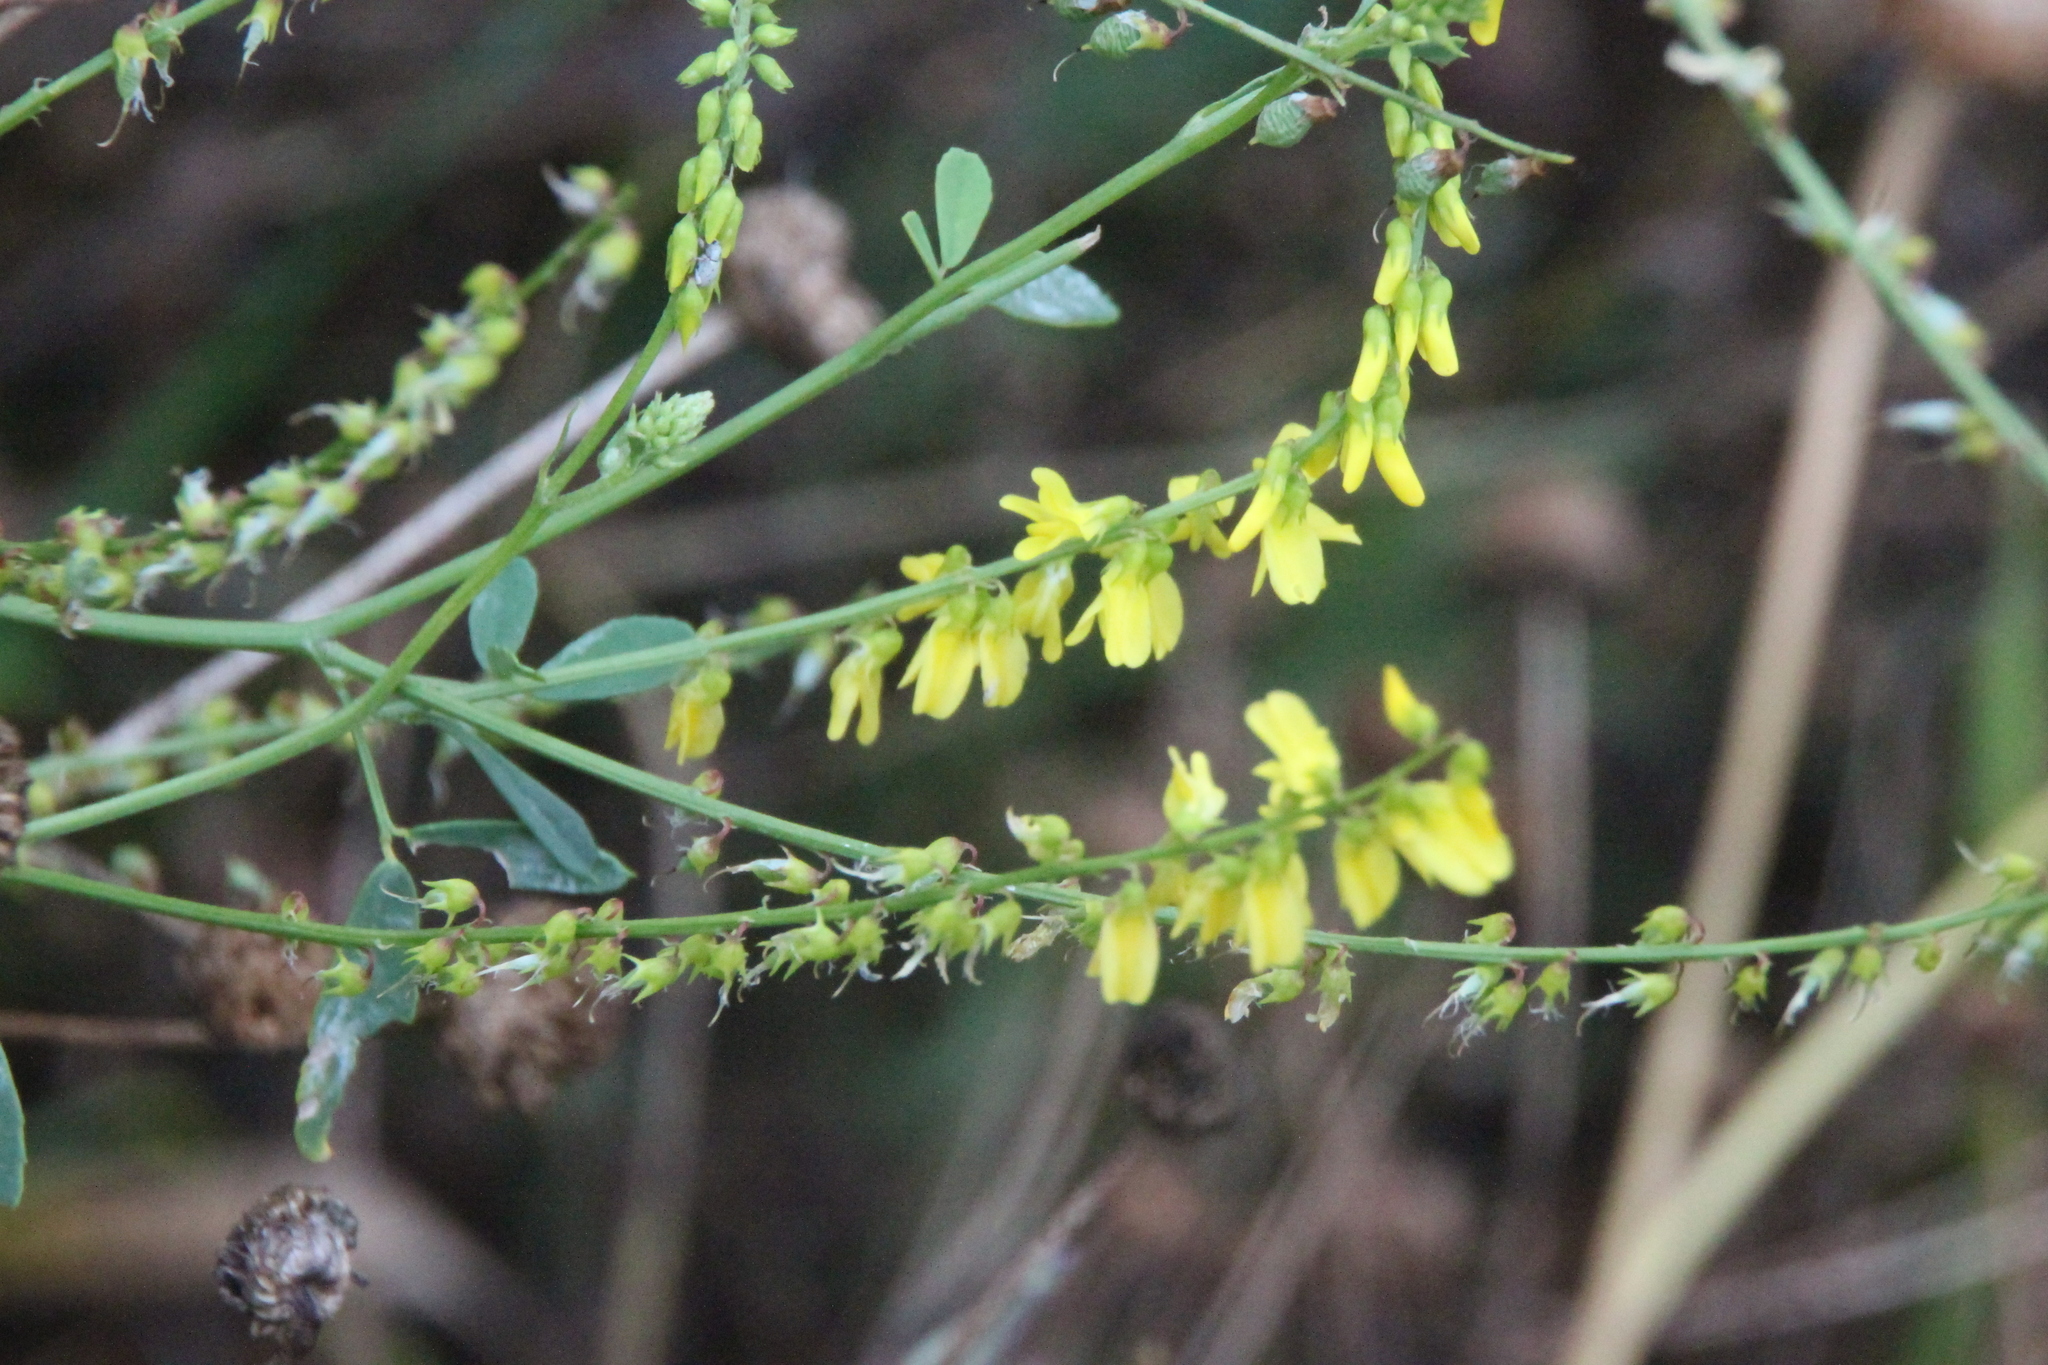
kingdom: Plantae
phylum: Tracheophyta
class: Magnoliopsida
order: Fabales
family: Fabaceae
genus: Melilotus
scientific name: Melilotus officinalis
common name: Sweetclover
